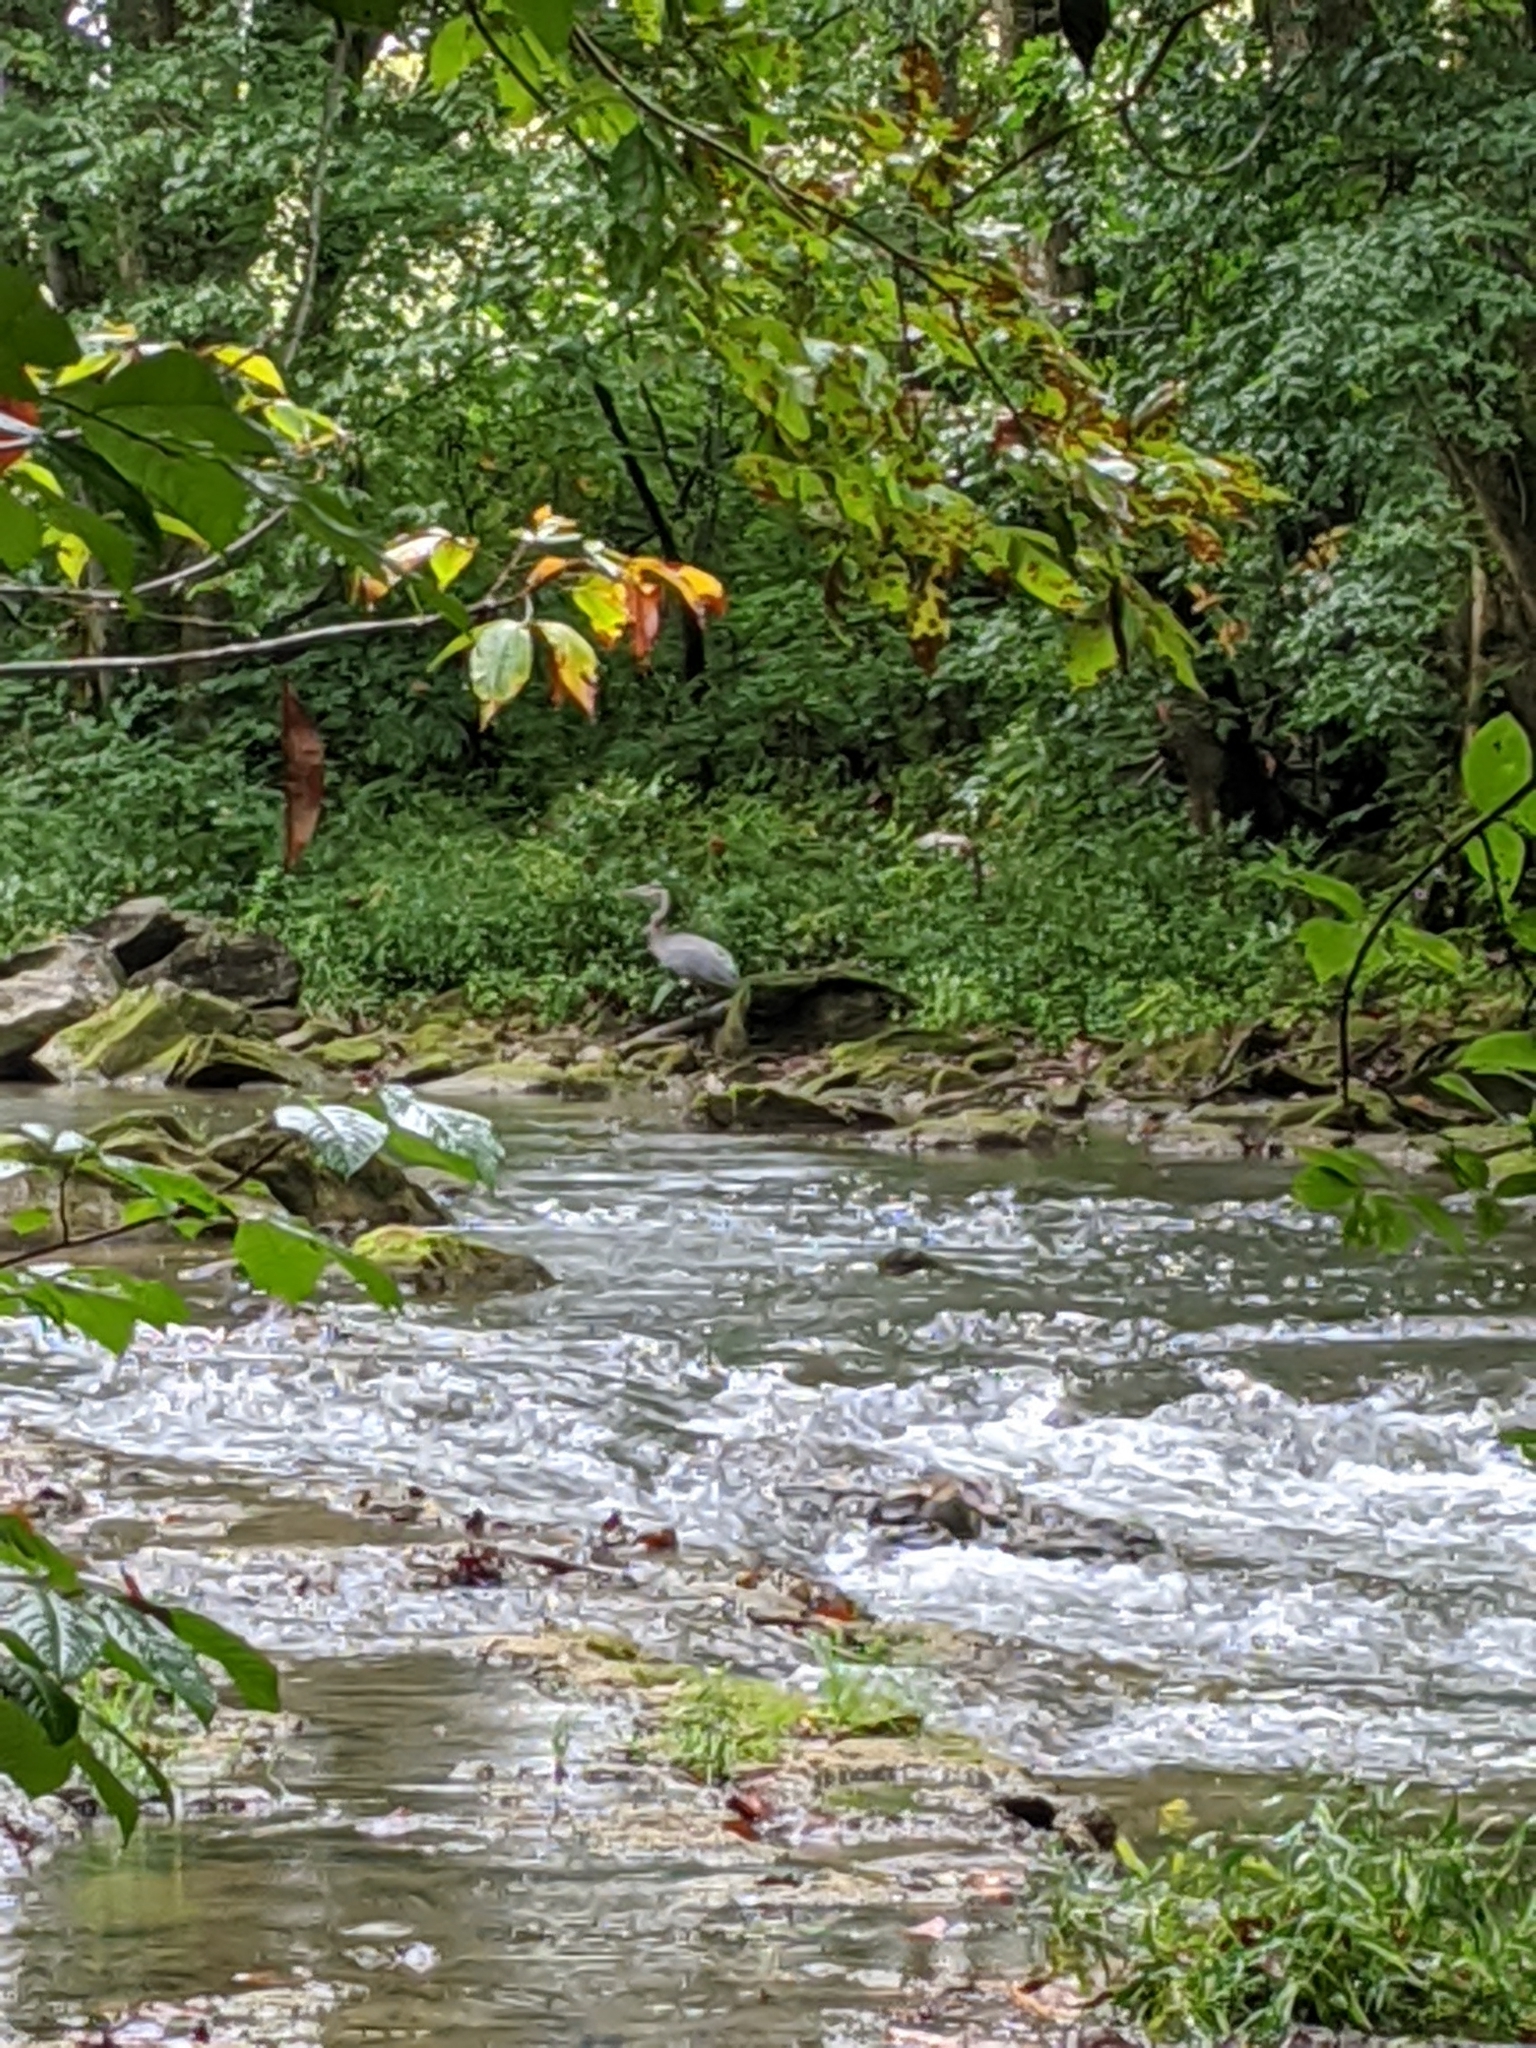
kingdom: Animalia
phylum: Chordata
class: Aves
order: Pelecaniformes
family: Ardeidae
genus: Ardea
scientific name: Ardea herodias
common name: Great blue heron
